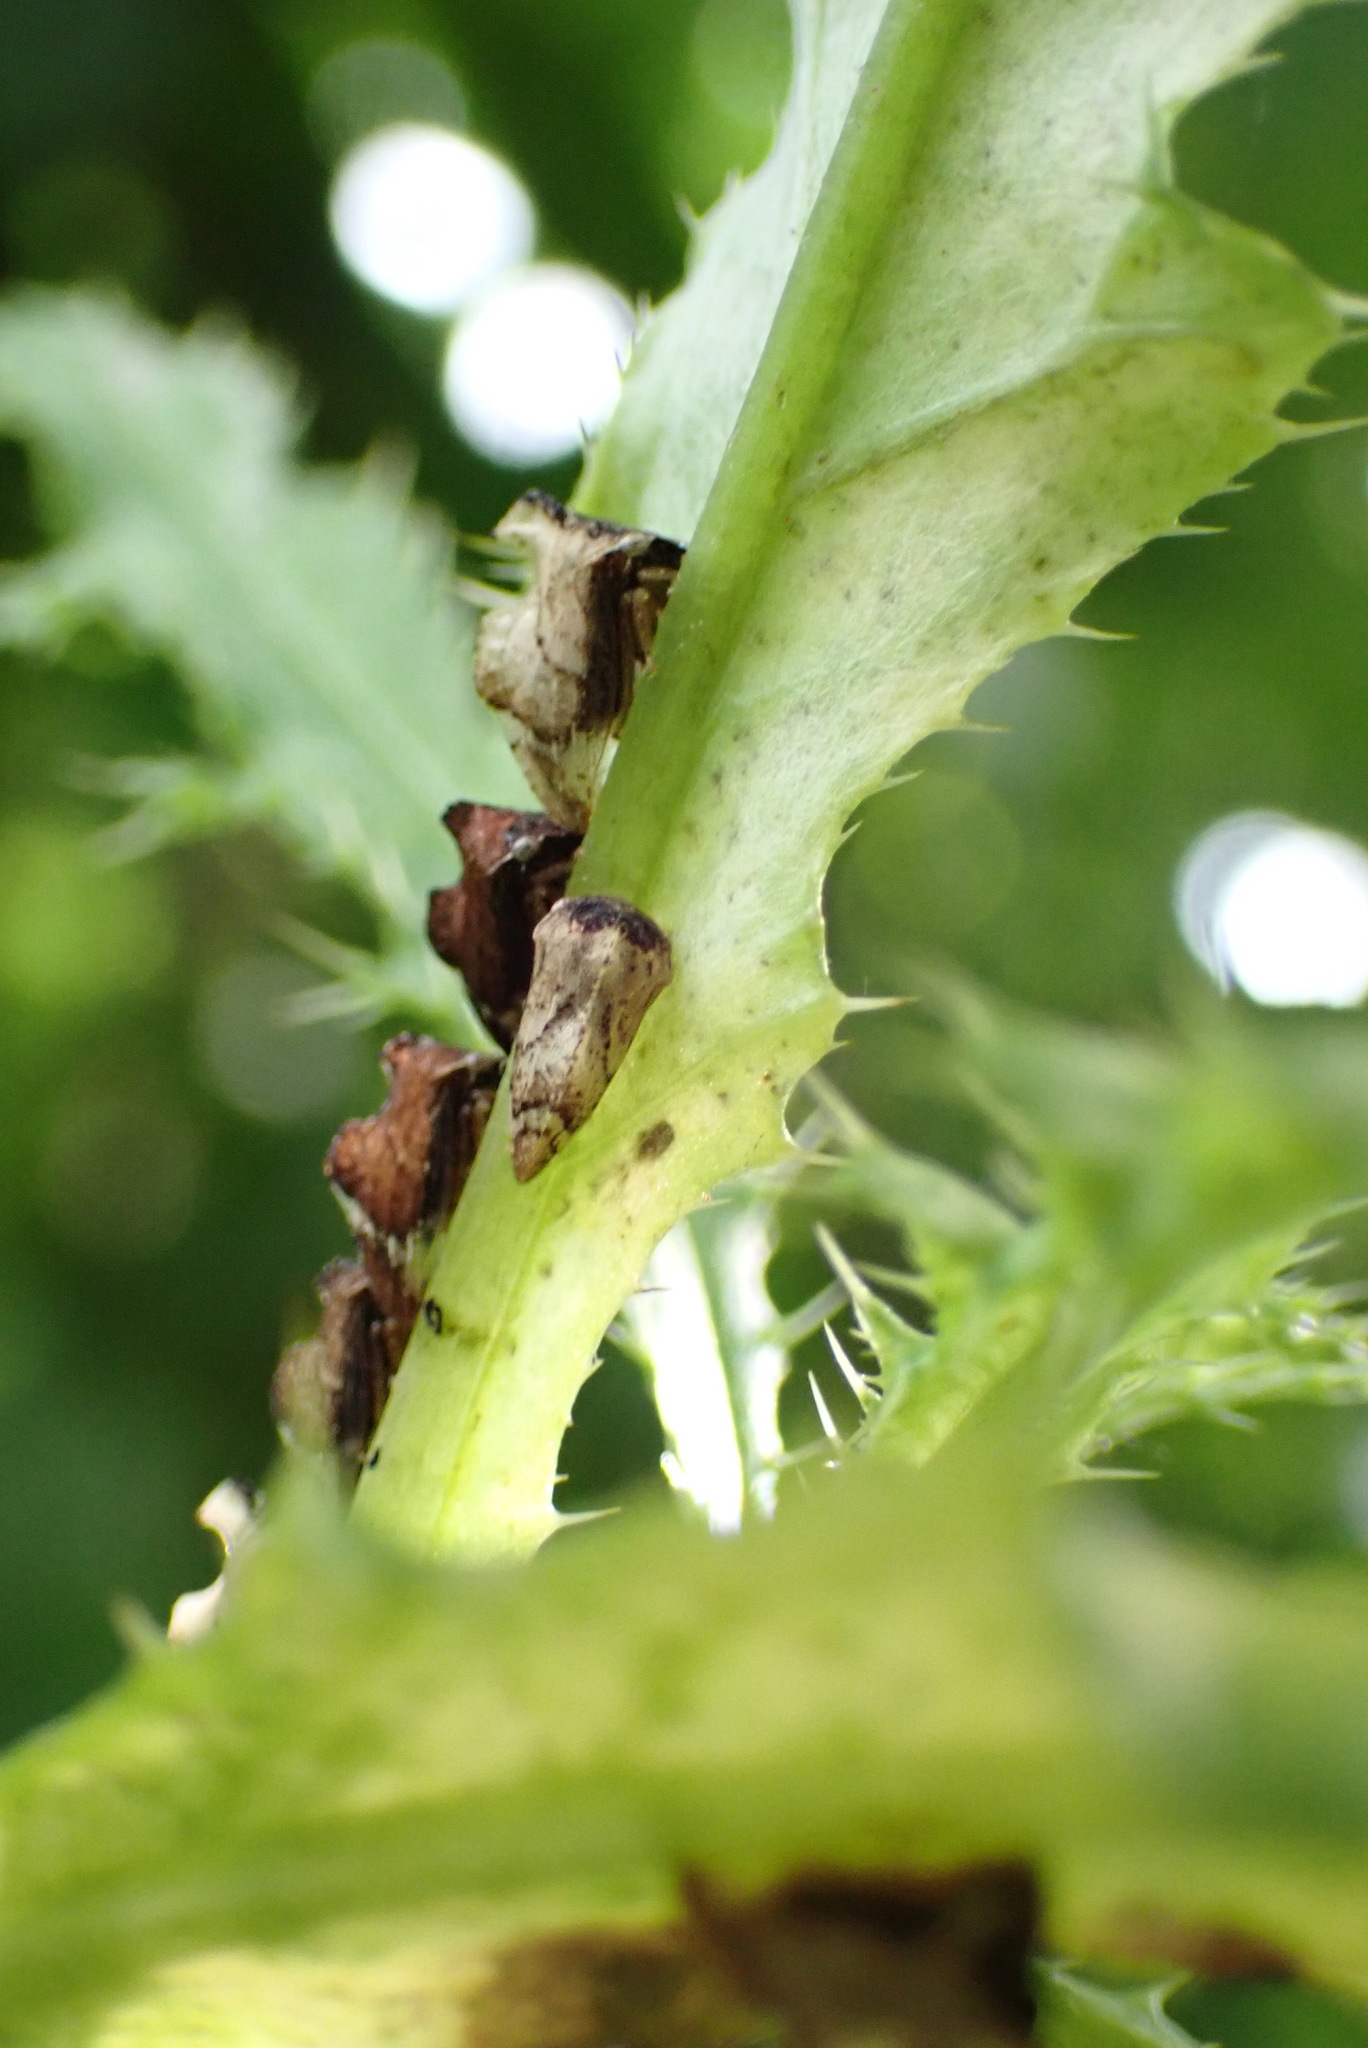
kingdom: Animalia
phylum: Arthropoda
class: Insecta
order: Hemiptera
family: Membracidae
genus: Entylia
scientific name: Entylia carinata
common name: Keeled treehopper
